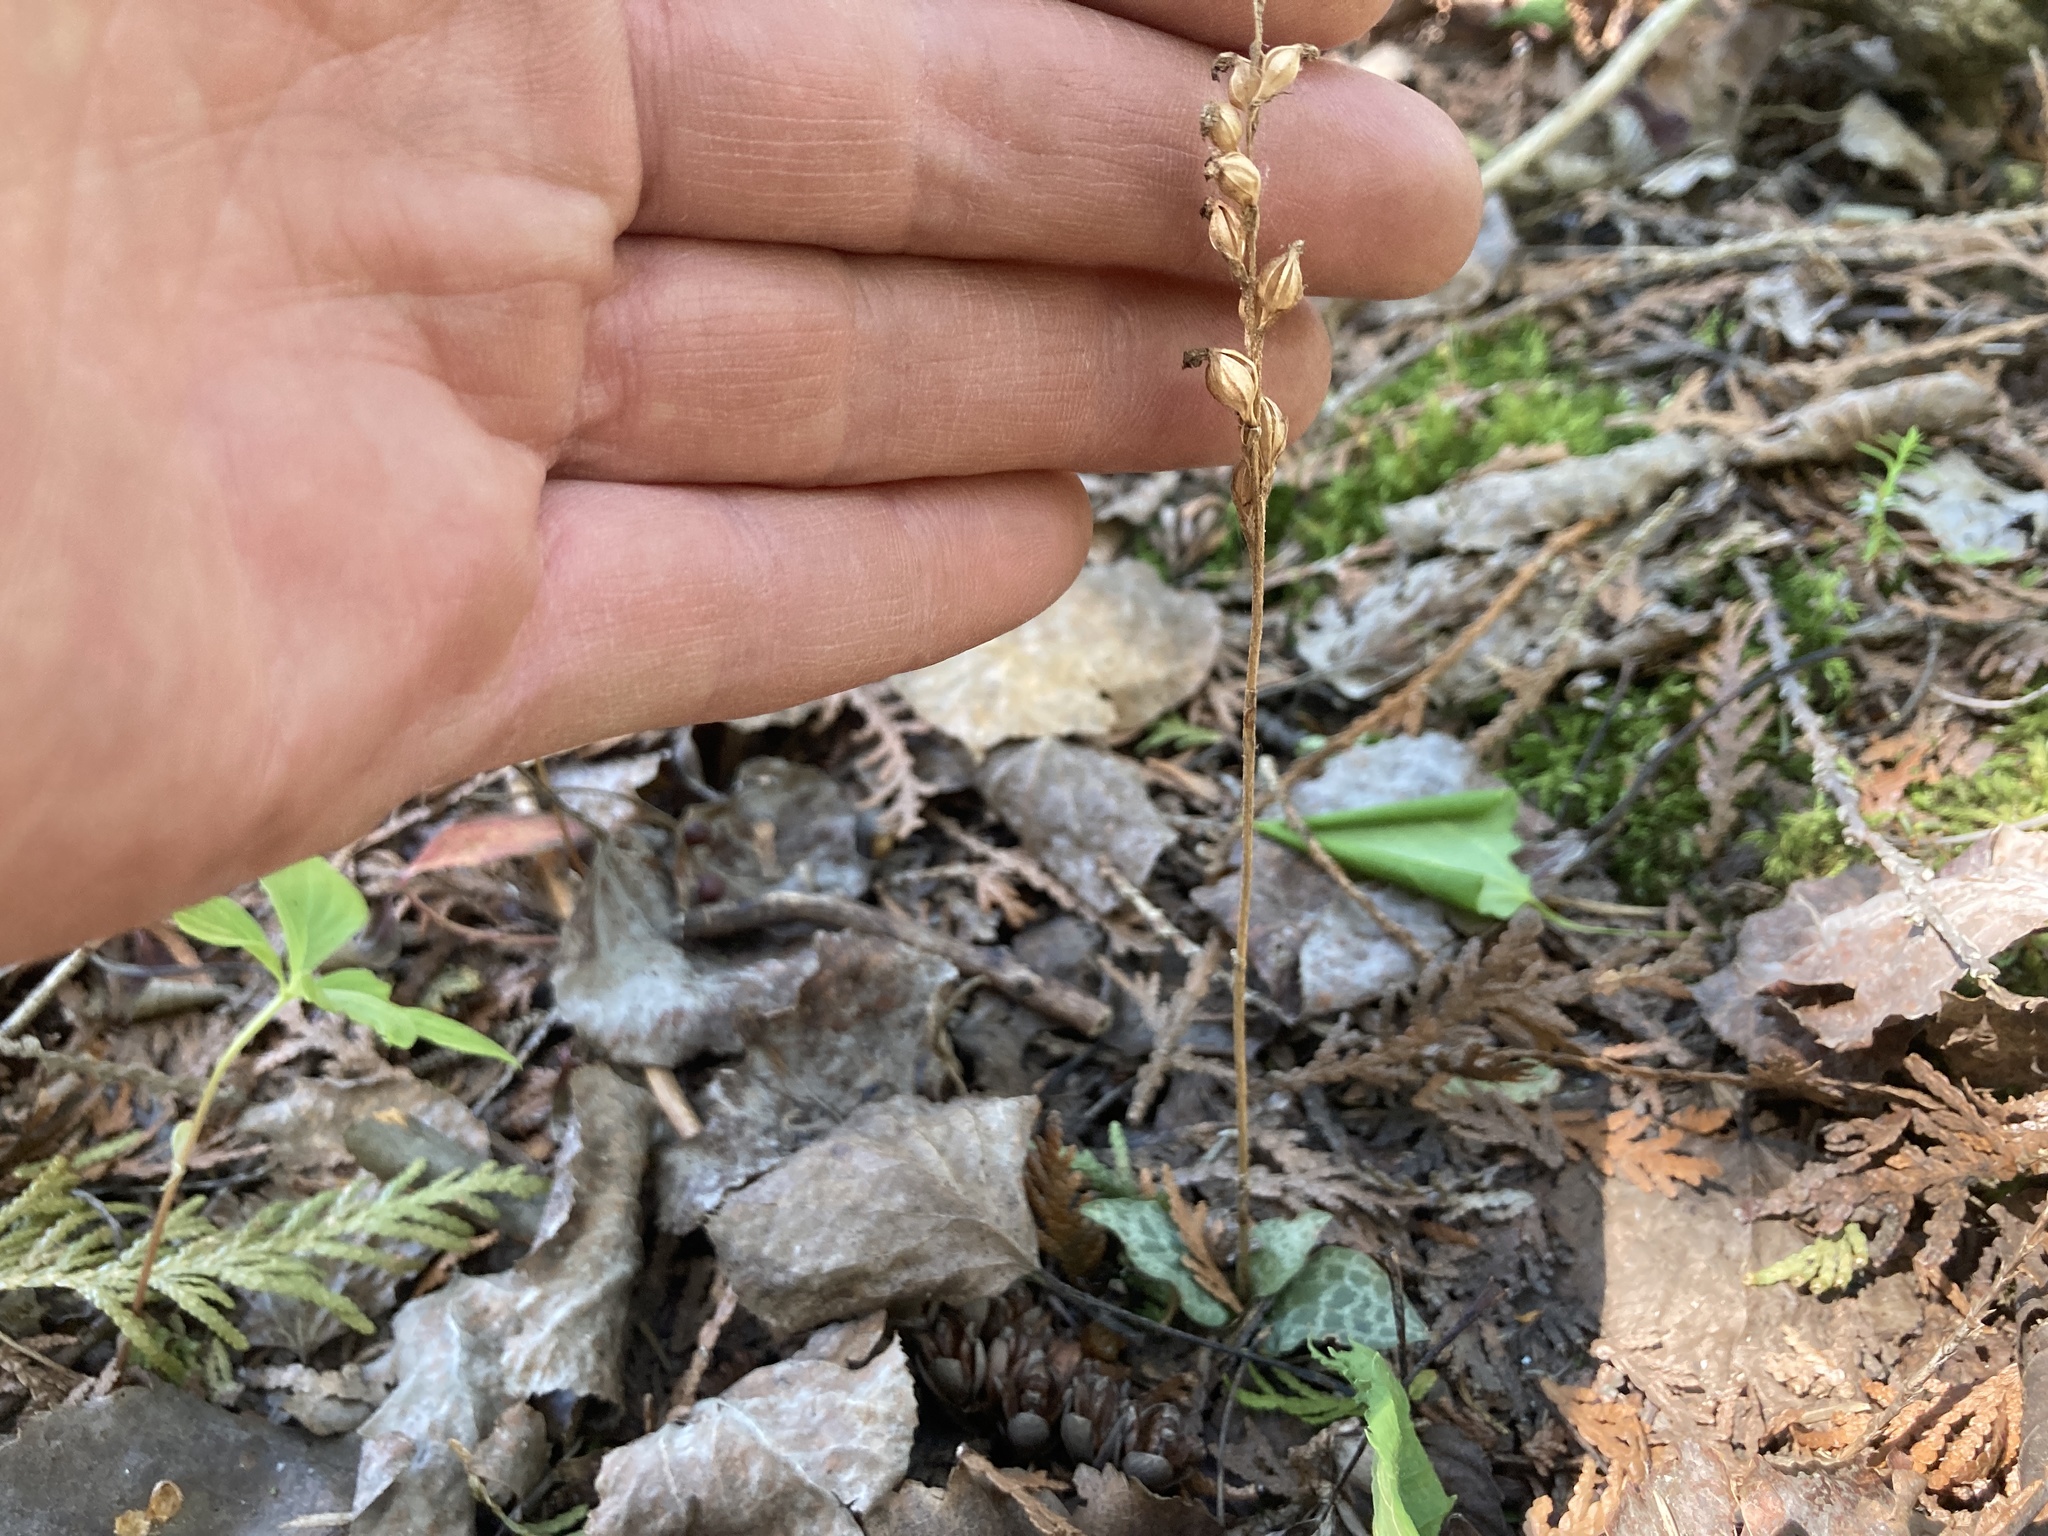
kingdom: Plantae
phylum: Tracheophyta
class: Liliopsida
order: Asparagales
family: Orchidaceae
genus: Goodyera
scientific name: Goodyera tesselata
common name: Checkered rattlesnake-plantain
